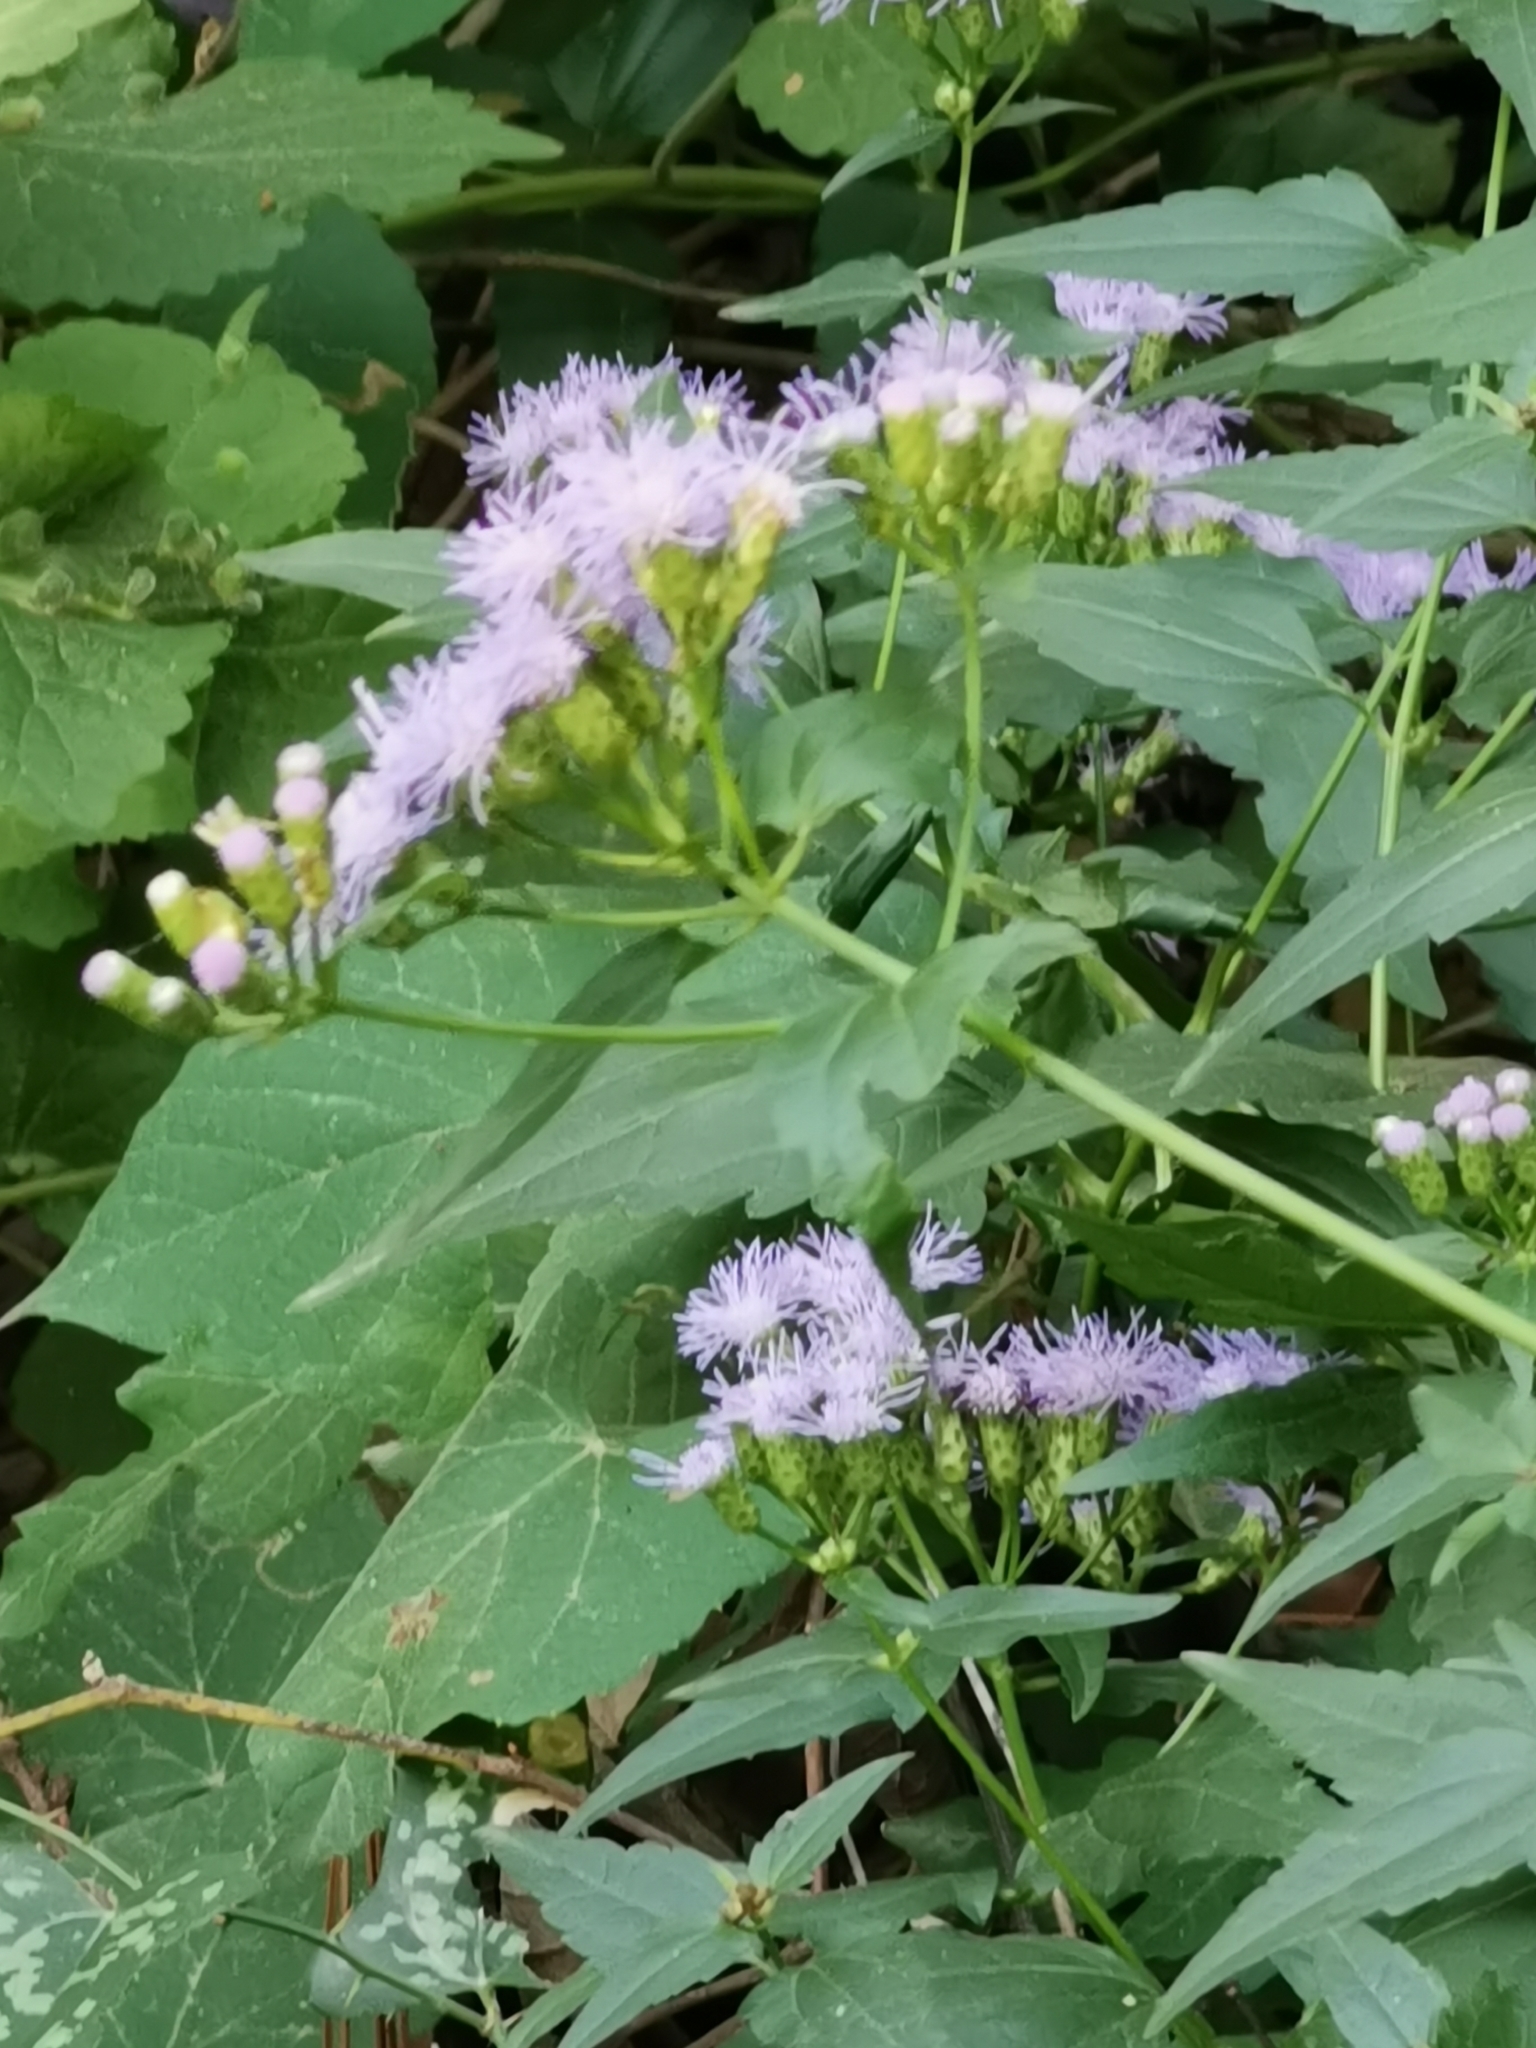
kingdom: Plantae
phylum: Tracheophyta
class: Magnoliopsida
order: Asterales
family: Asteraceae
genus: Chromolaena
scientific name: Chromolaena odorata
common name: Siamweed
